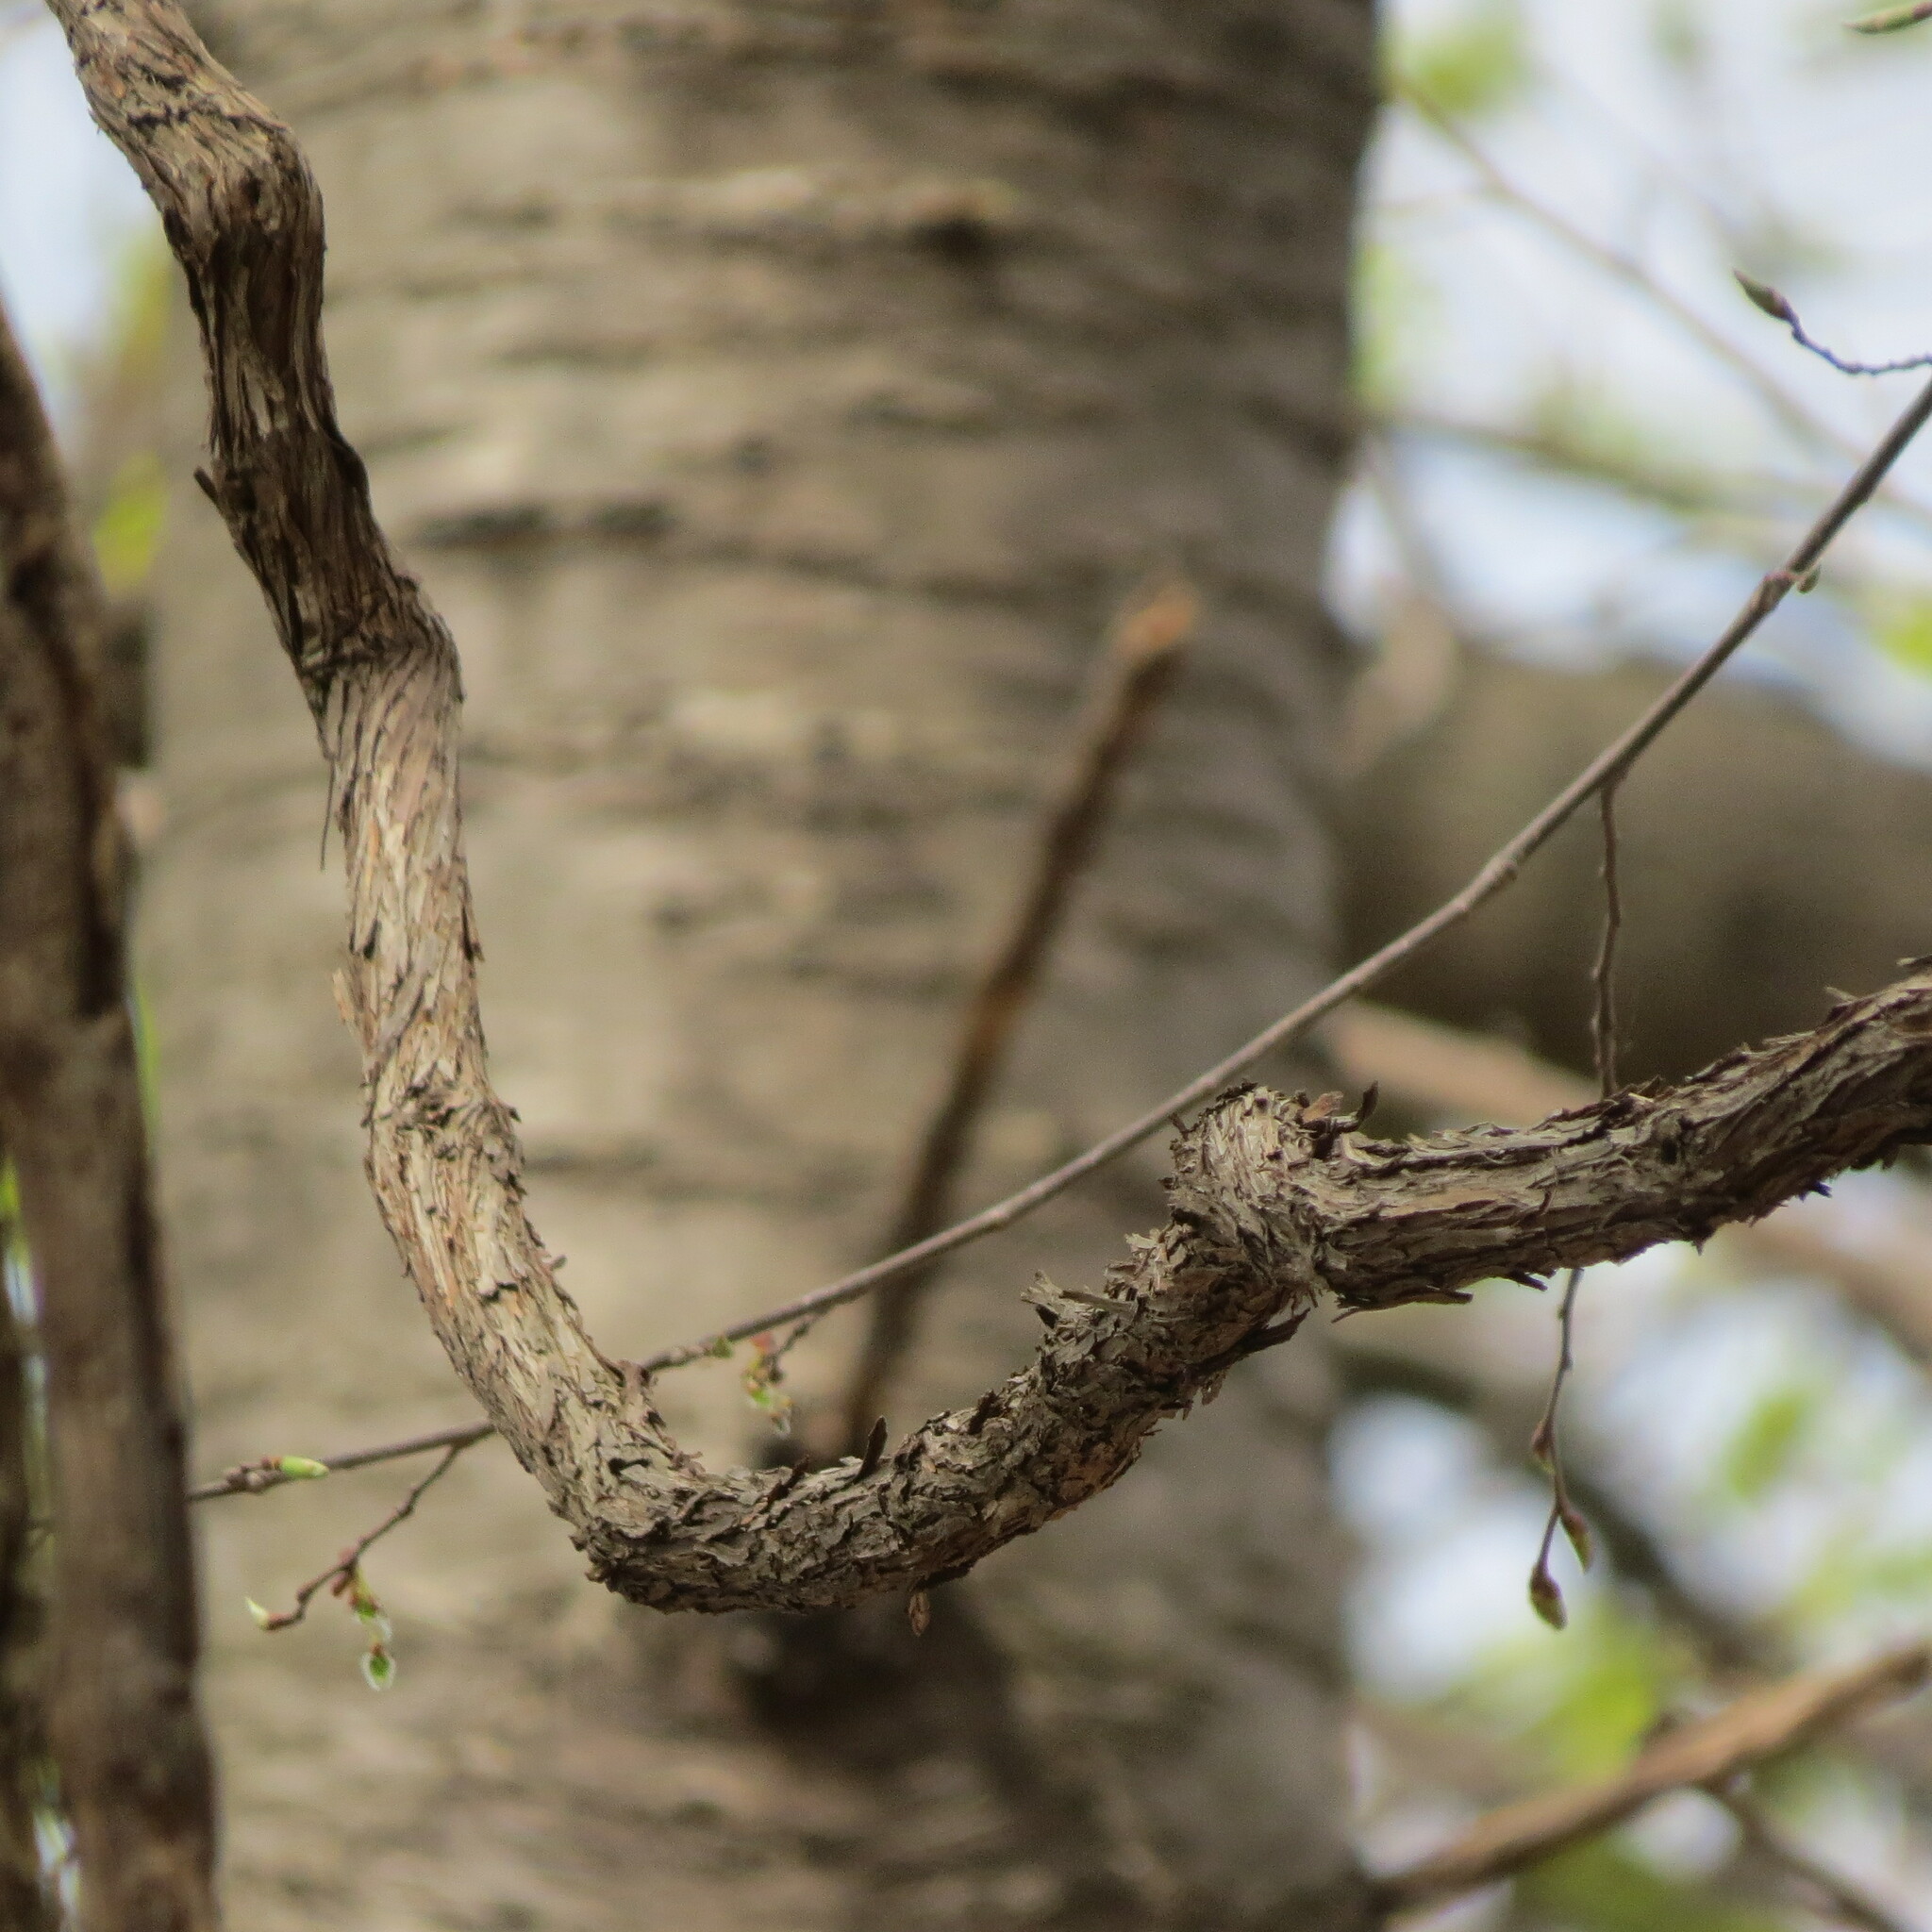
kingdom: Plantae
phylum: Tracheophyta
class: Magnoliopsida
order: Vitales
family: Vitaceae
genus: Vitis
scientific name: Vitis riparia
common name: Frost grape
